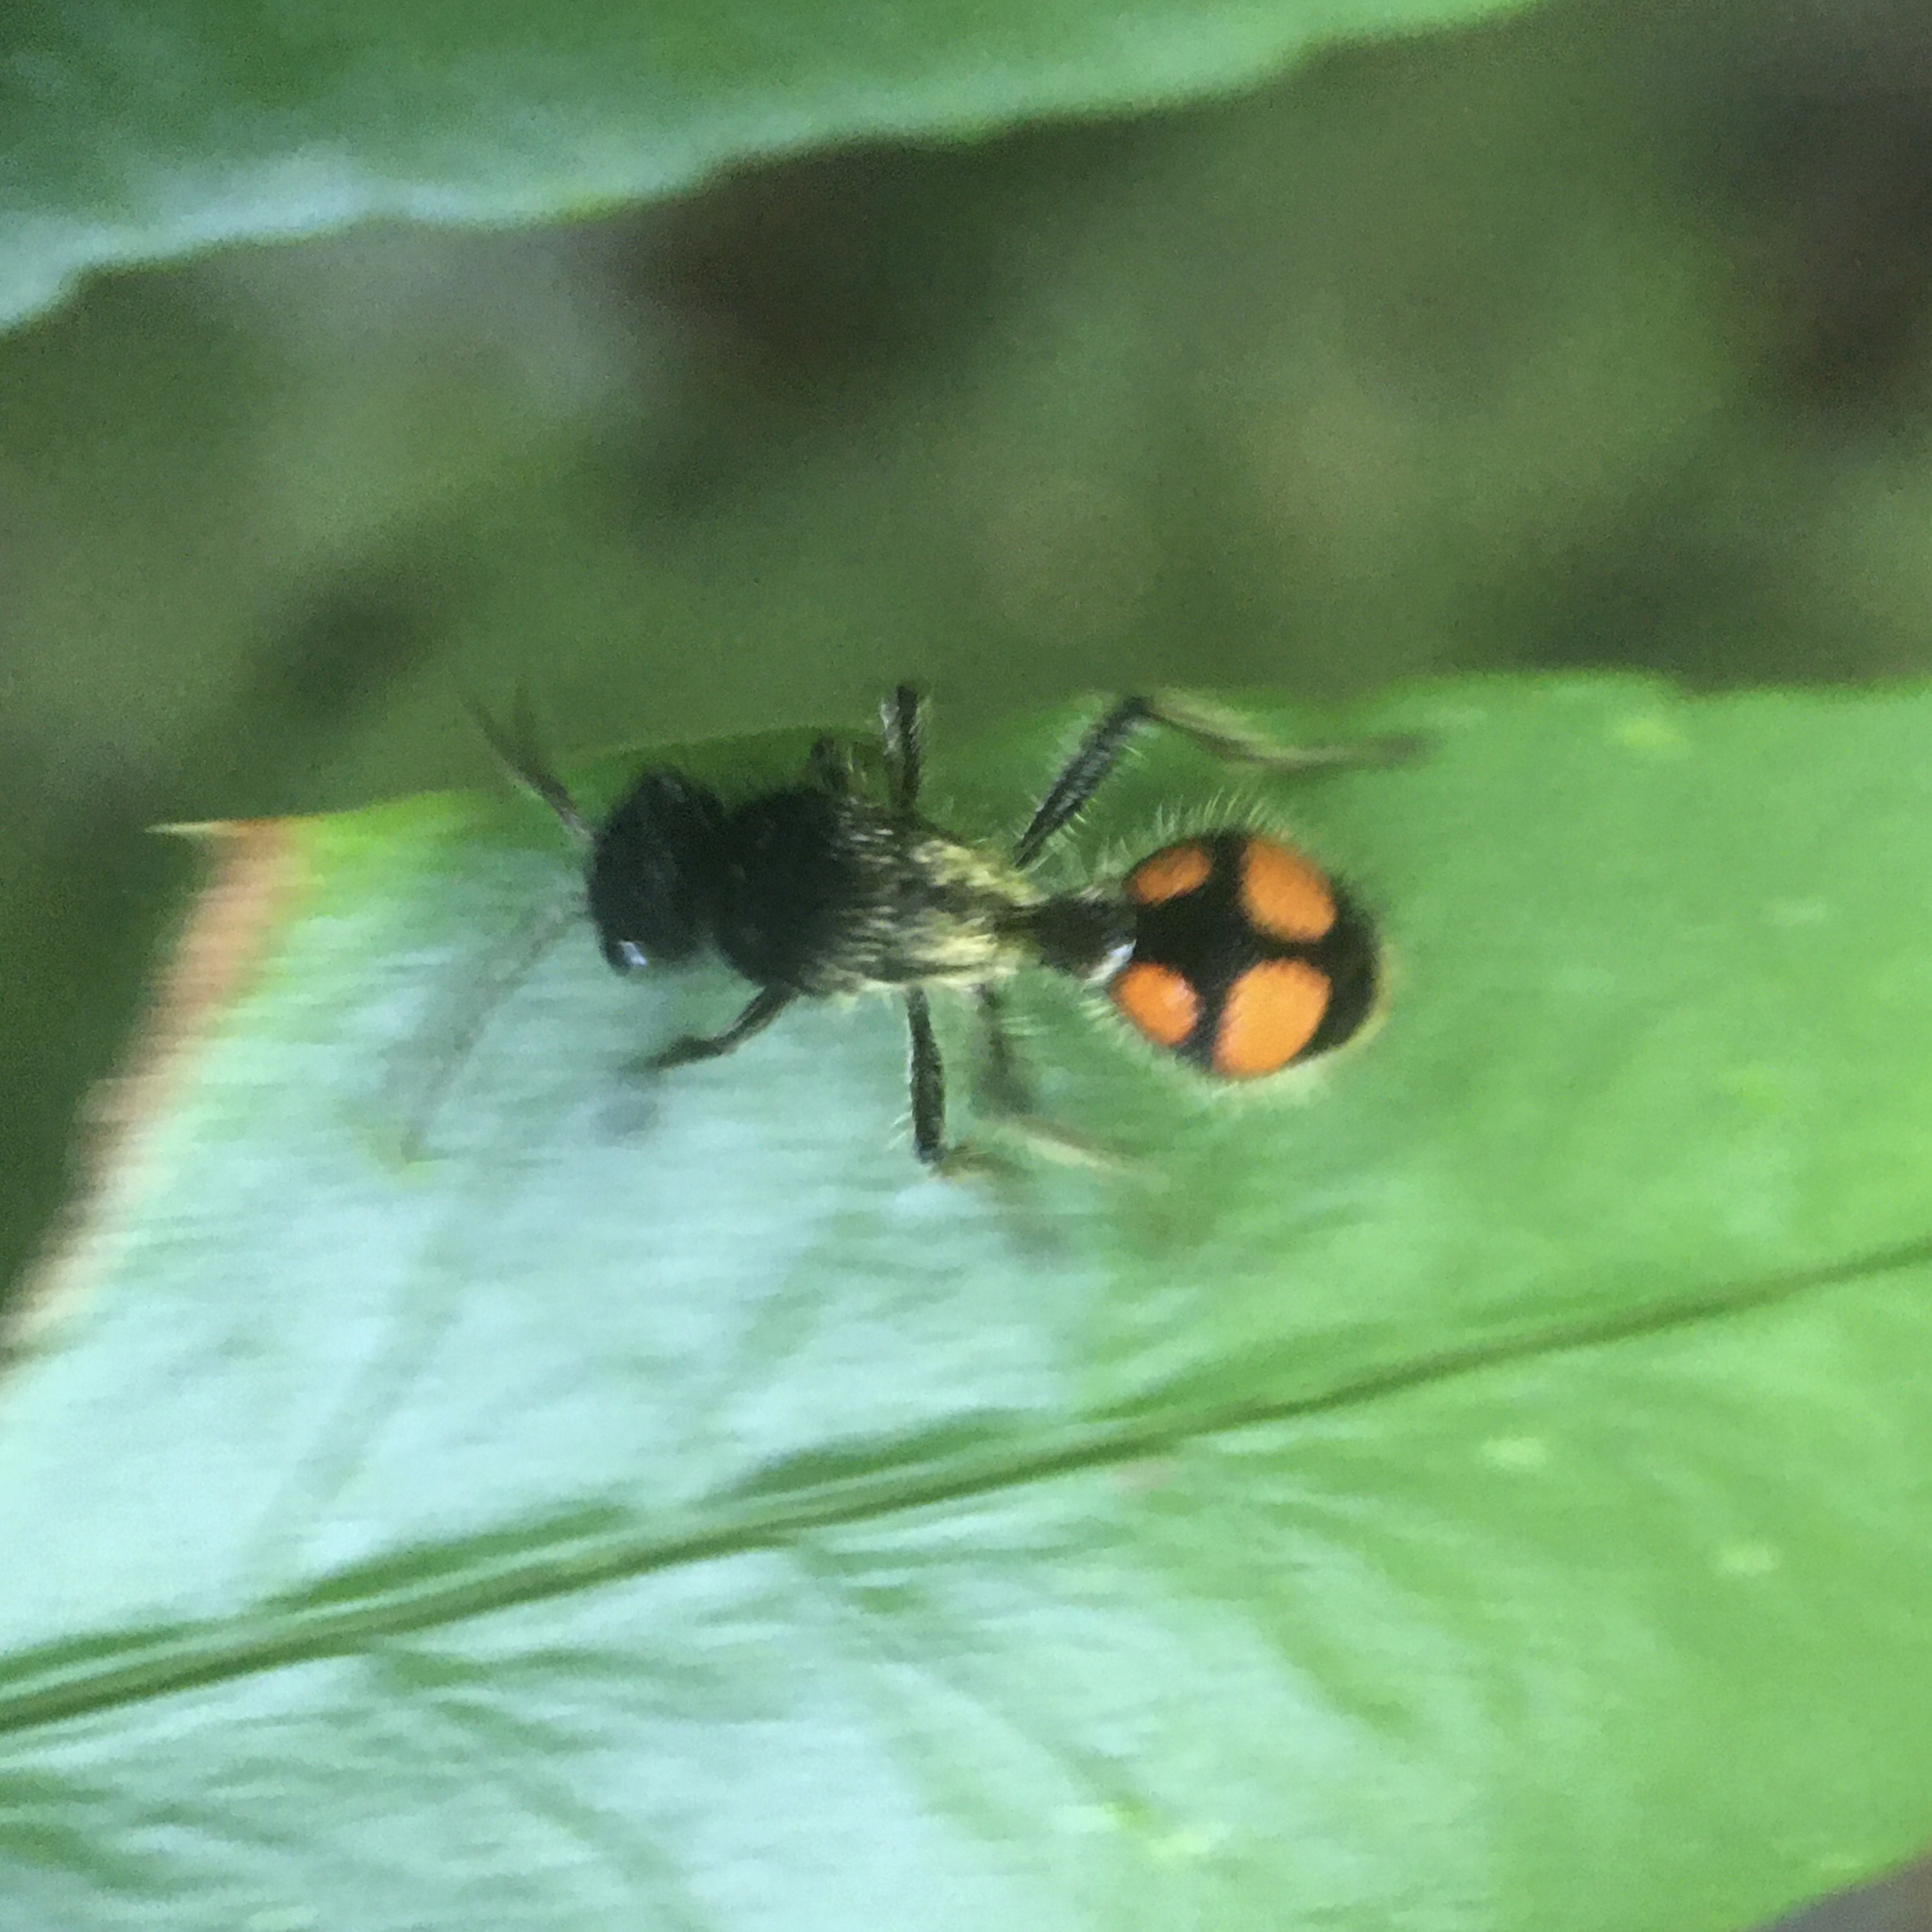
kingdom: Animalia
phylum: Arthropoda
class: Insecta
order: Hymenoptera
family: Mutillidae
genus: Traumatomutilla
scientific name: Traumatomutilla inermis
